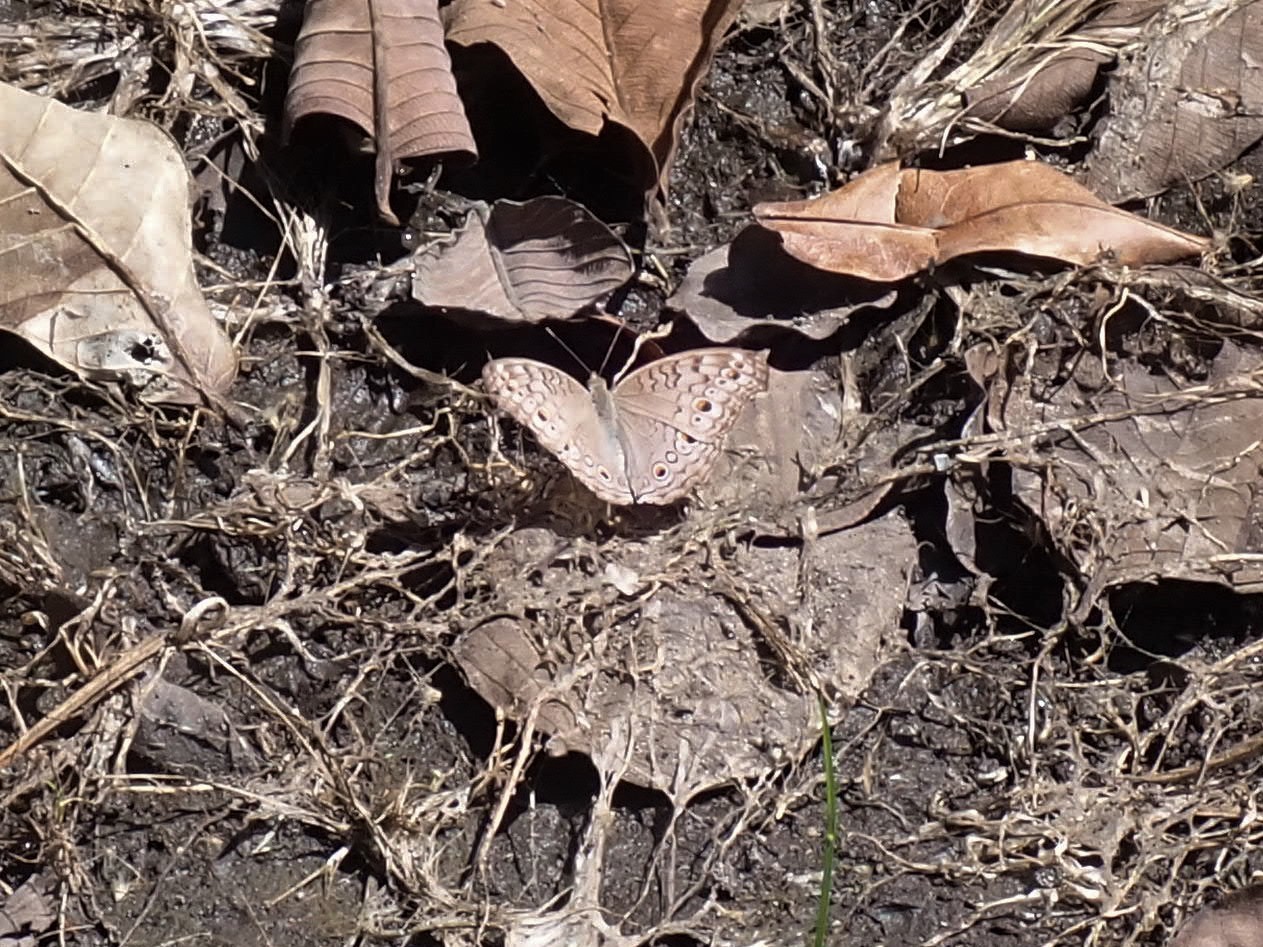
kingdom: Animalia
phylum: Arthropoda
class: Insecta
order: Lepidoptera
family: Nymphalidae
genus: Junonia
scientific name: Junonia atlites
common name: Grey pansy
